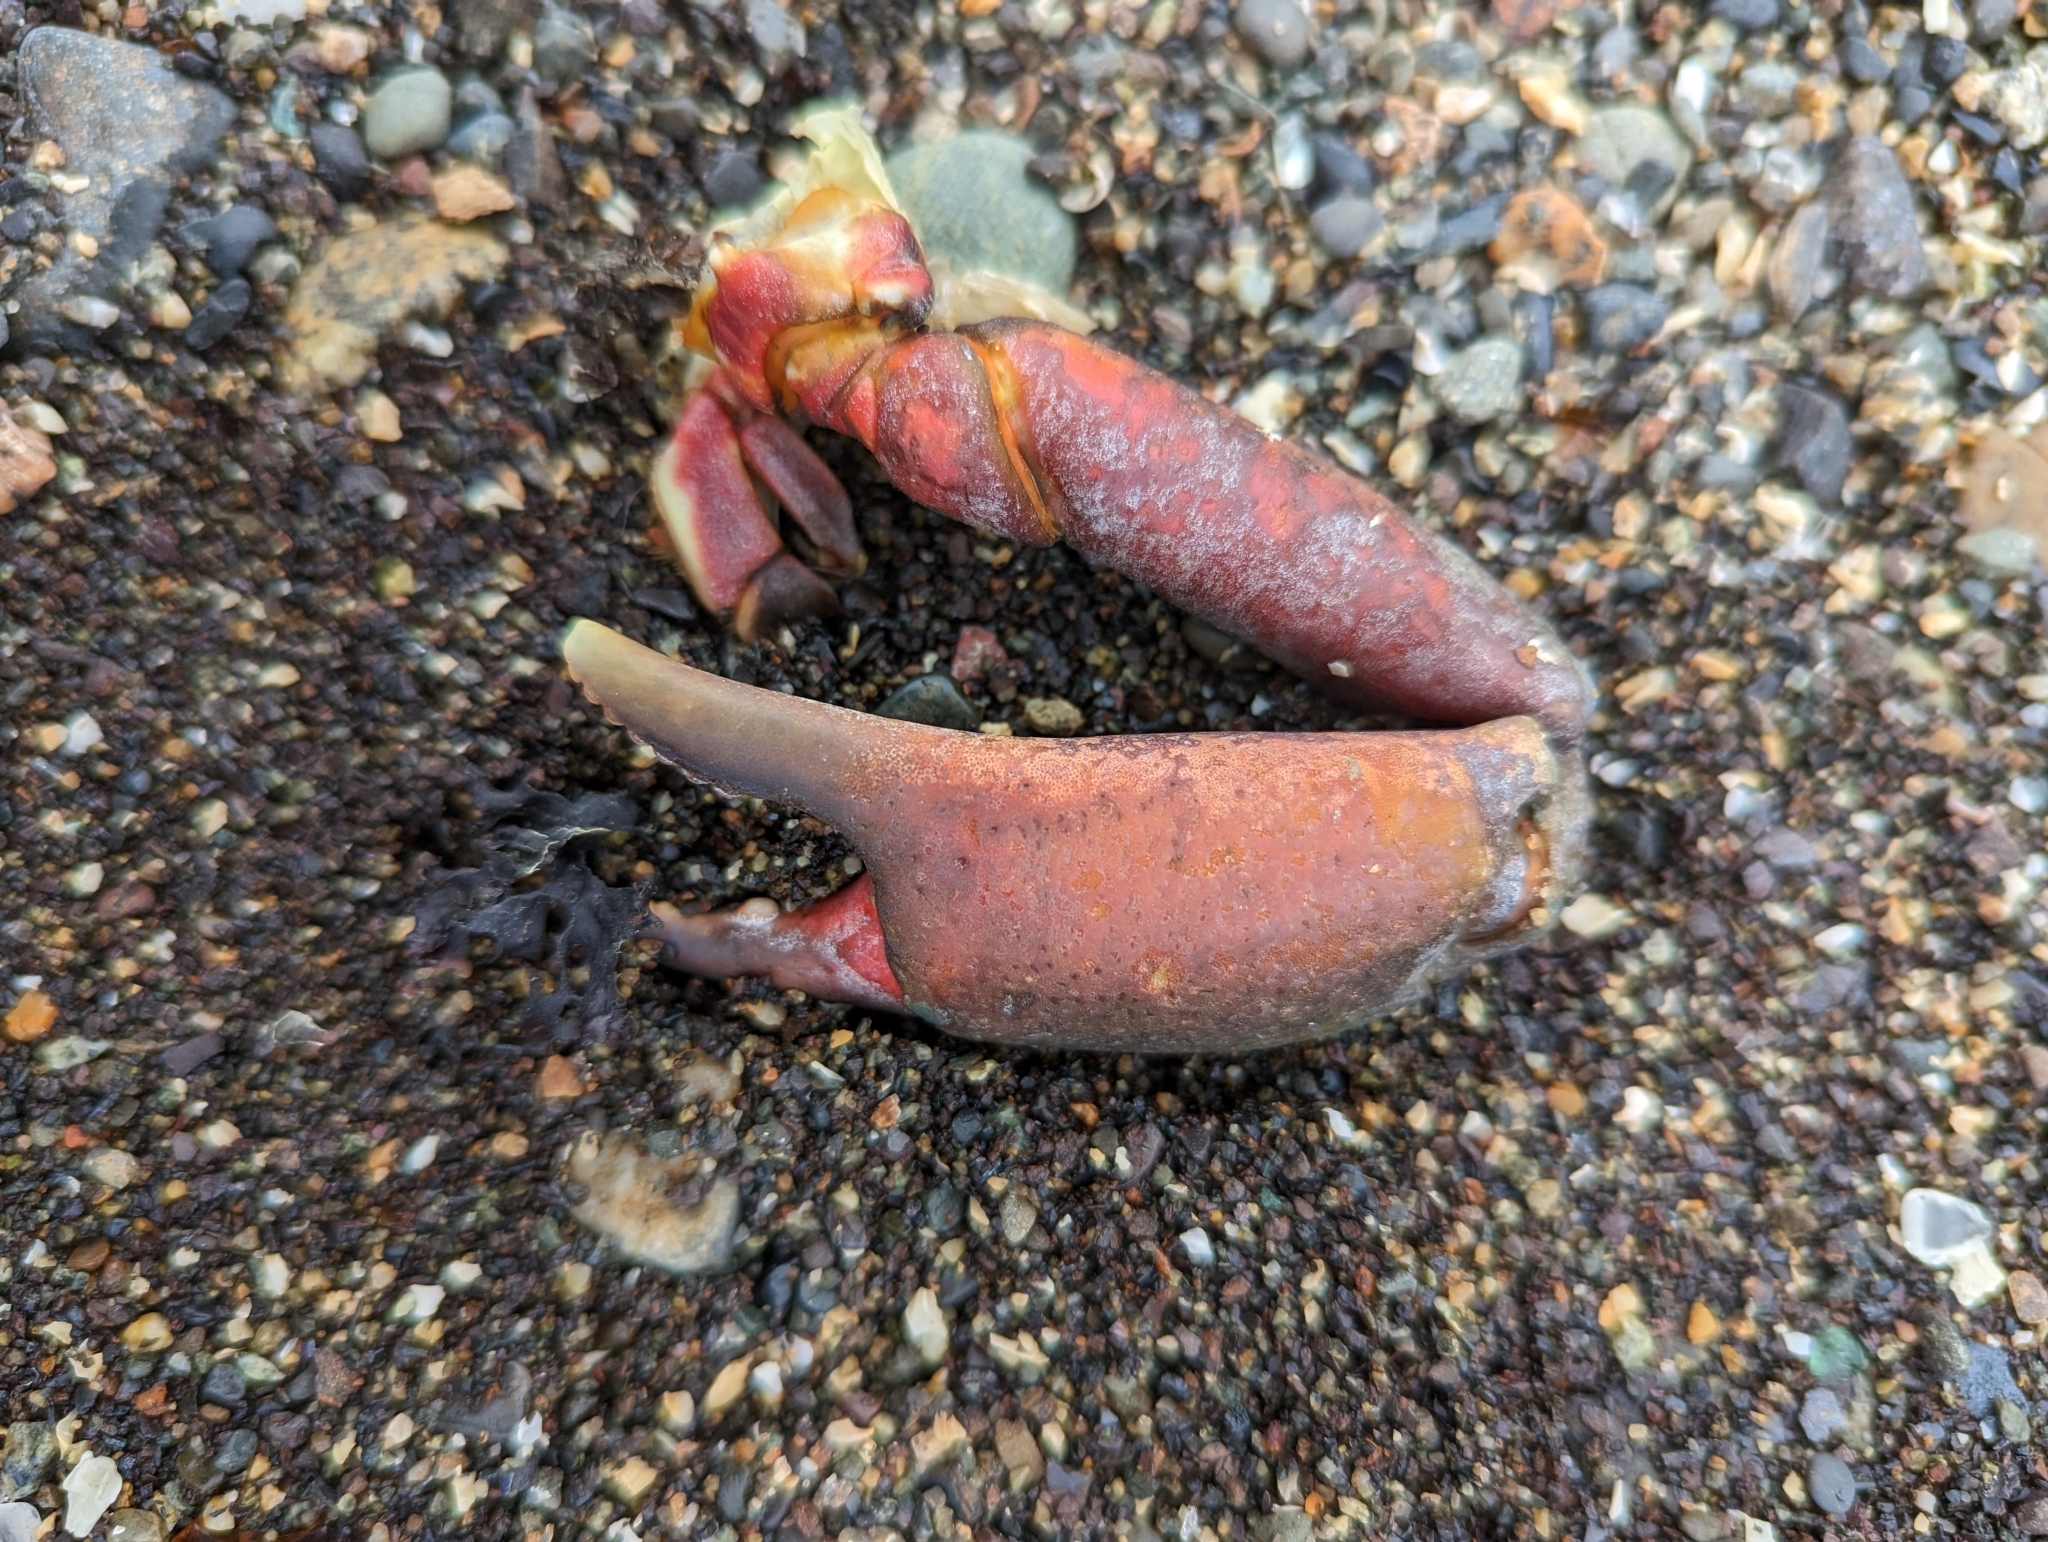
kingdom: Animalia
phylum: Arthropoda
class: Malacostraca
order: Decapoda
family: Epialtidae
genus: Pugettia
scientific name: Pugettia producta
